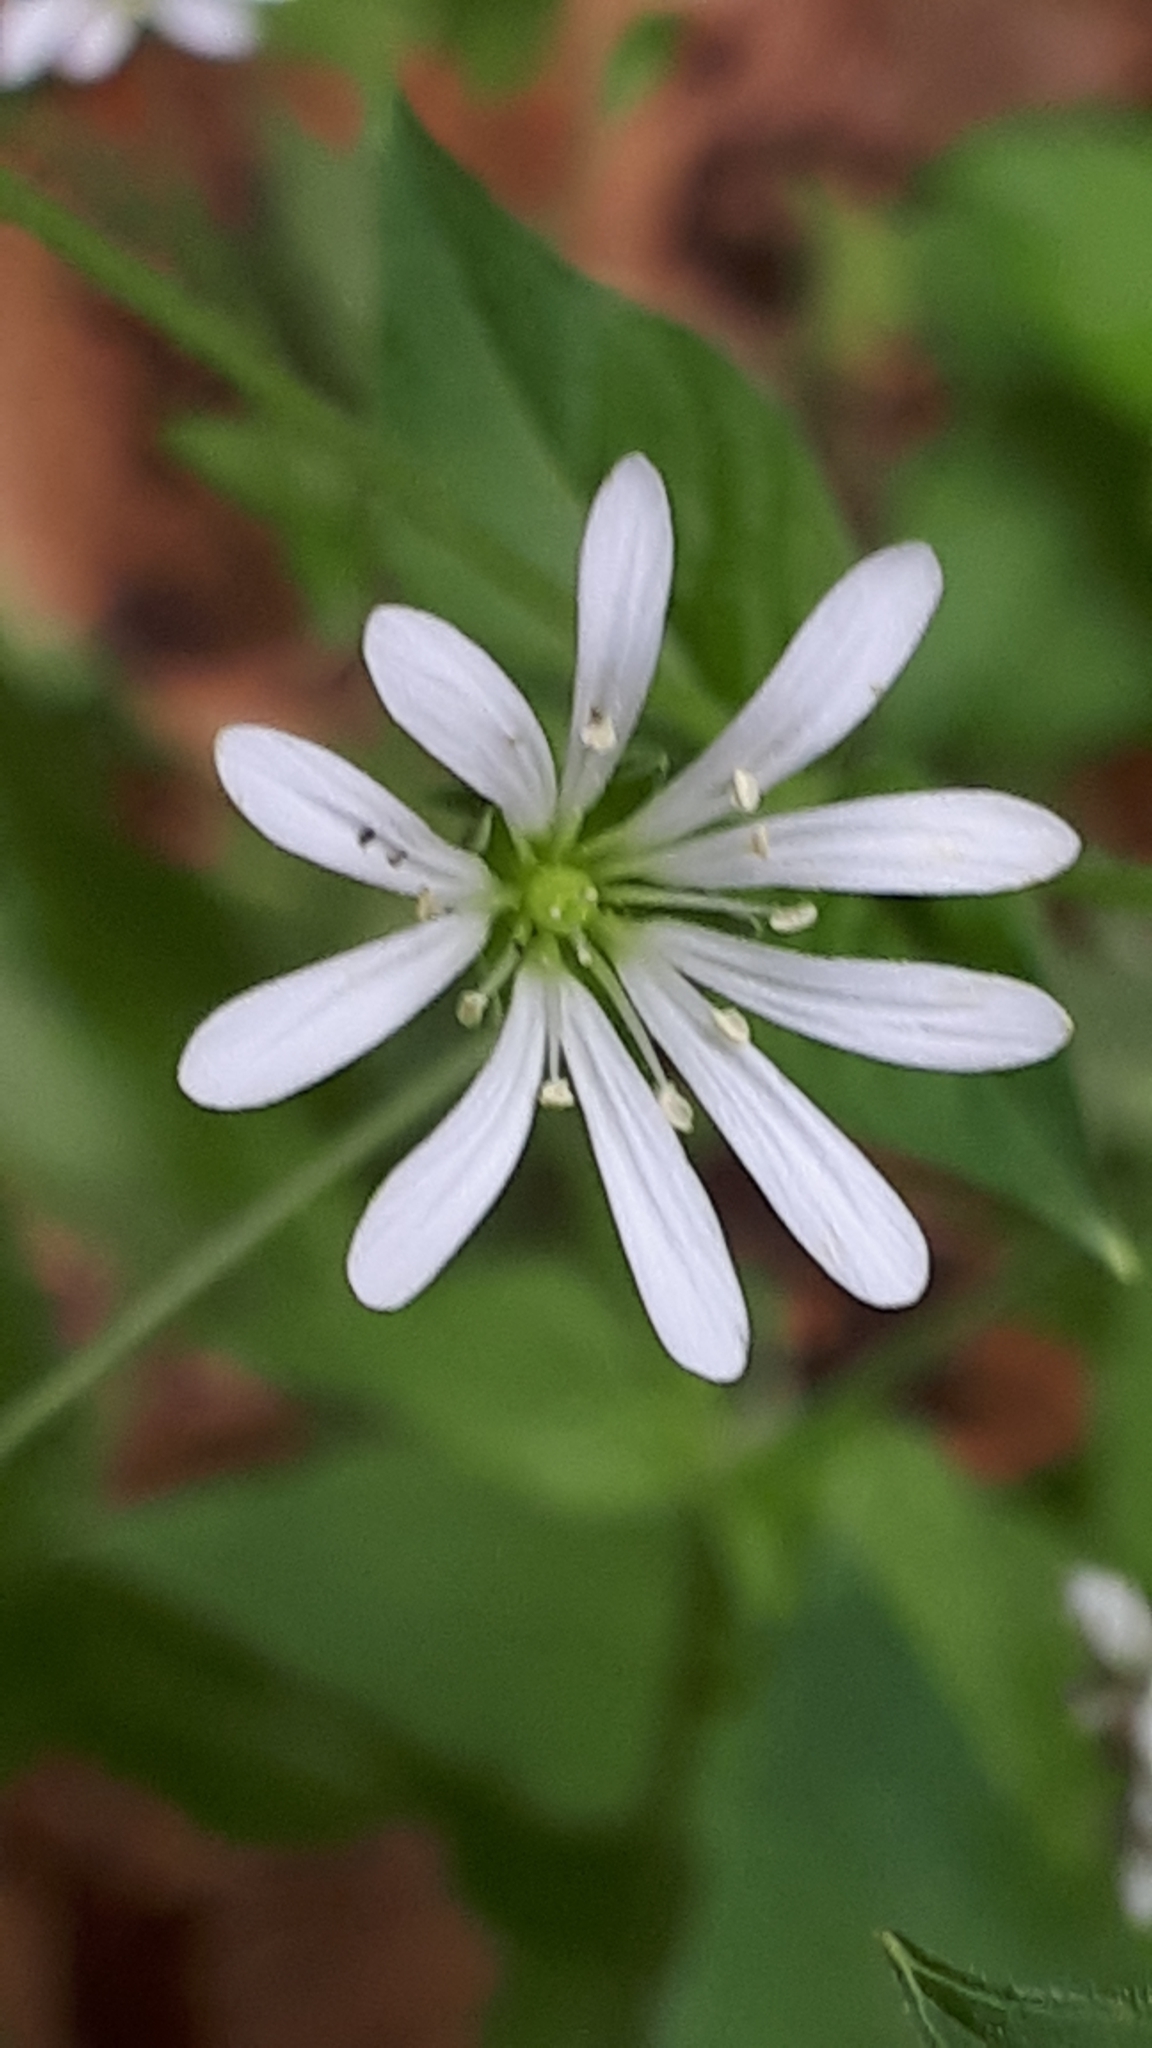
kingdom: Plantae
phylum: Tracheophyta
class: Magnoliopsida
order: Caryophyllales
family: Caryophyllaceae
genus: Stellaria
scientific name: Stellaria nemorum
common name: Wood stitchwort
